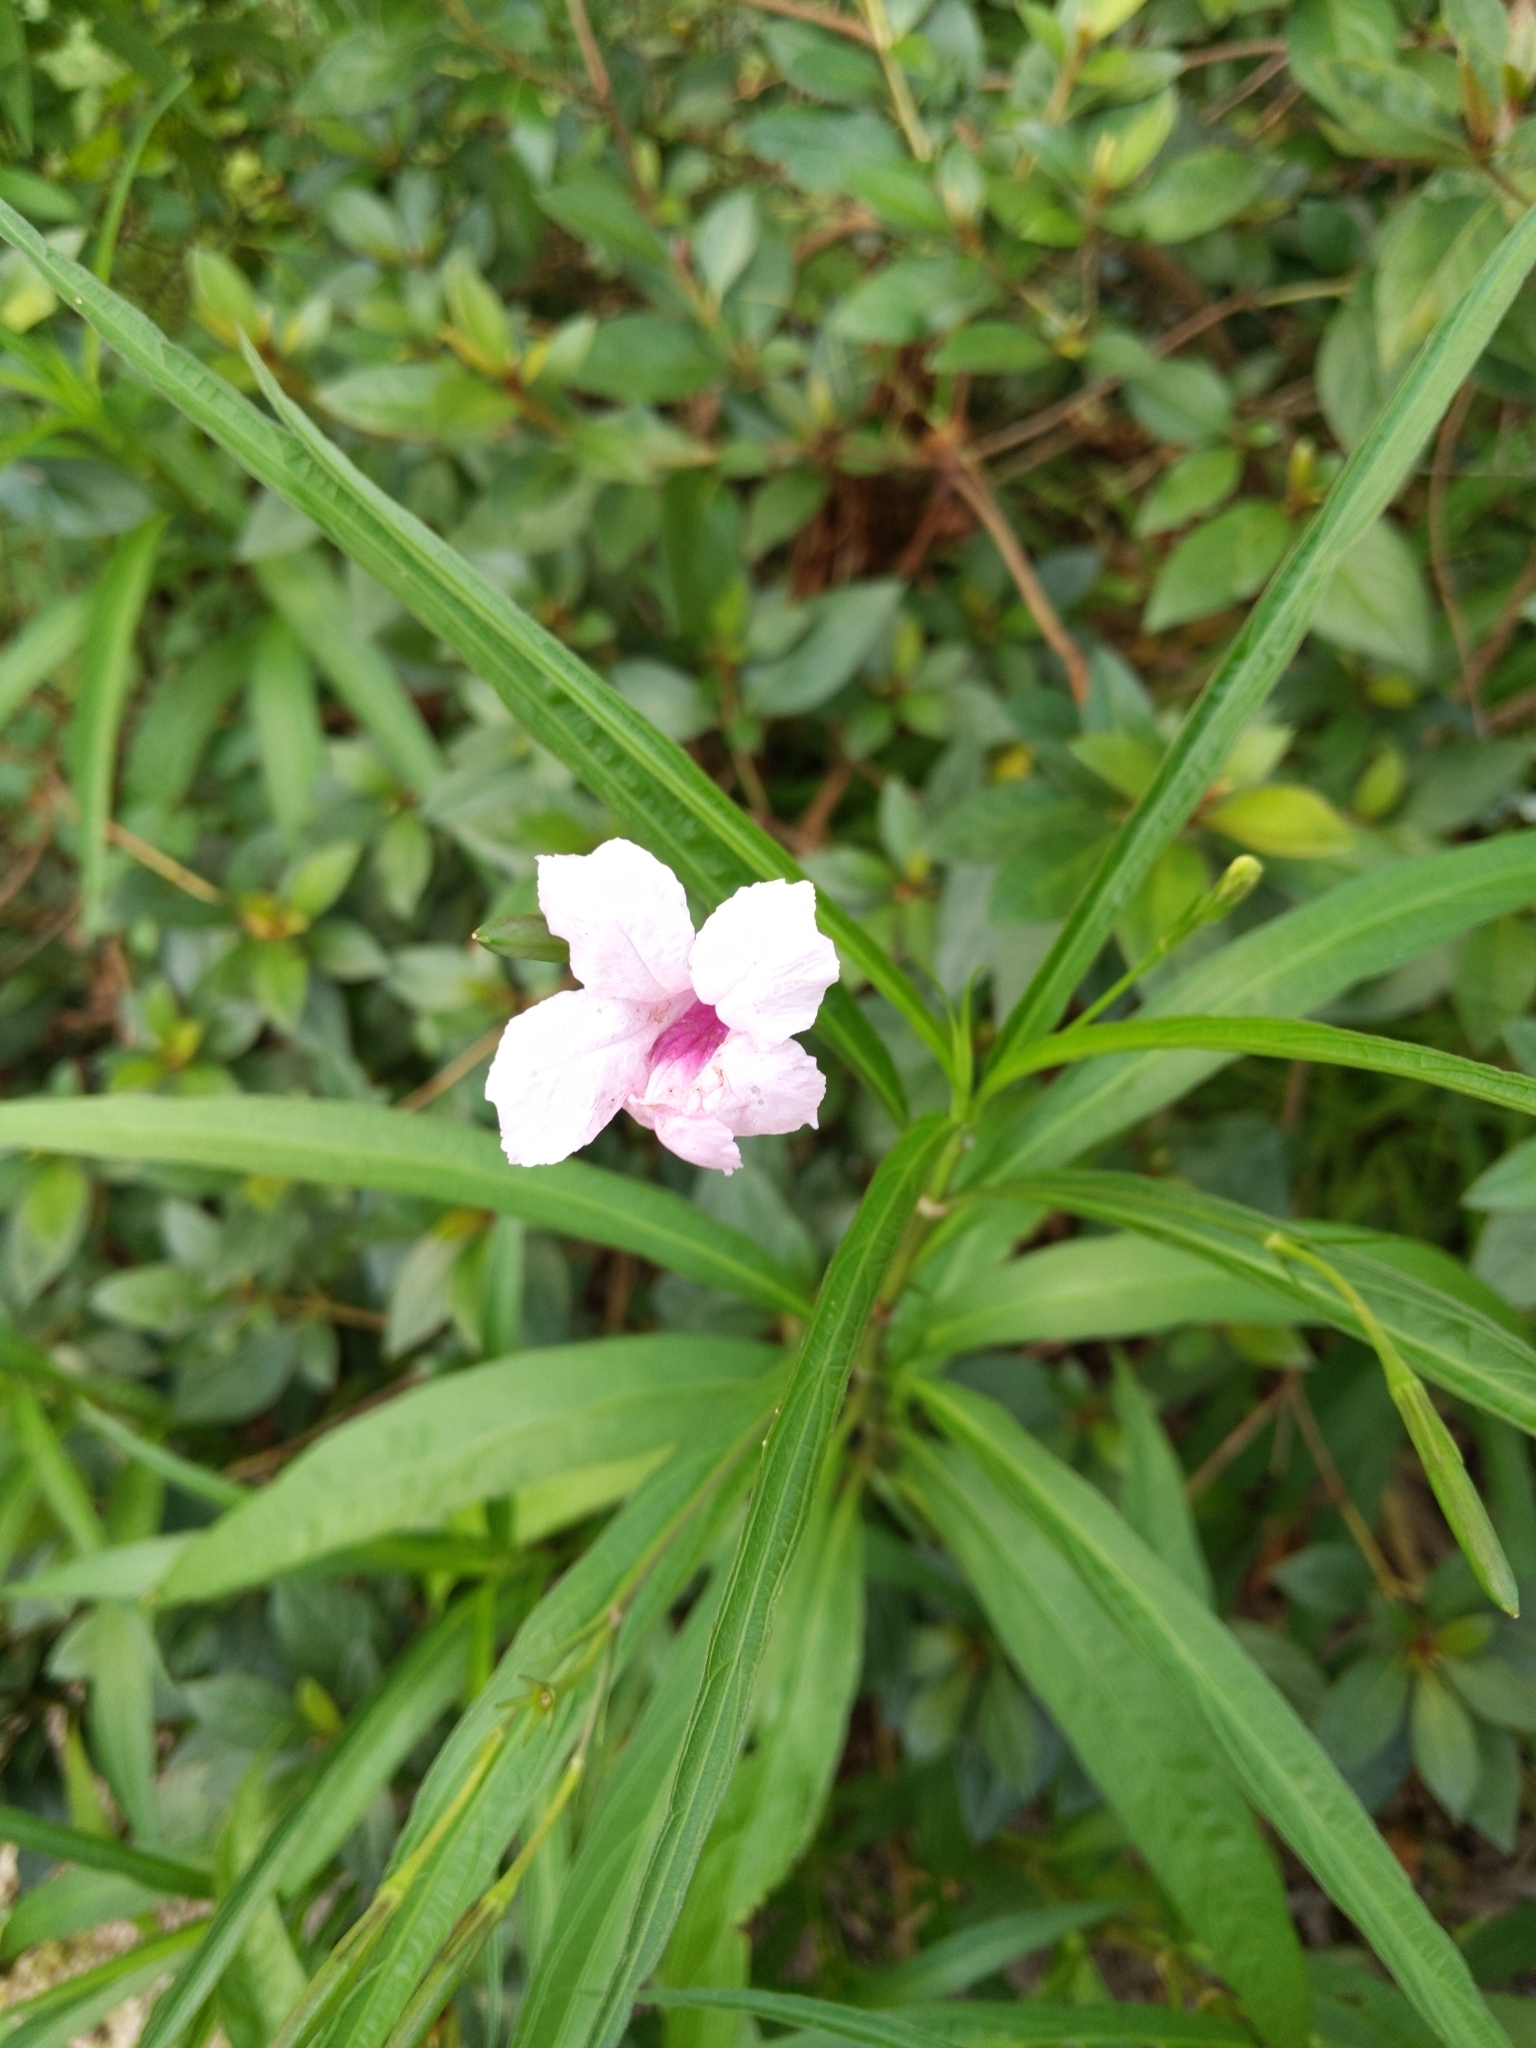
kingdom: Plantae
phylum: Tracheophyta
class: Magnoliopsida
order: Lamiales
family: Acanthaceae
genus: Ruellia
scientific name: Ruellia simplex
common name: Softseed wild petunia
